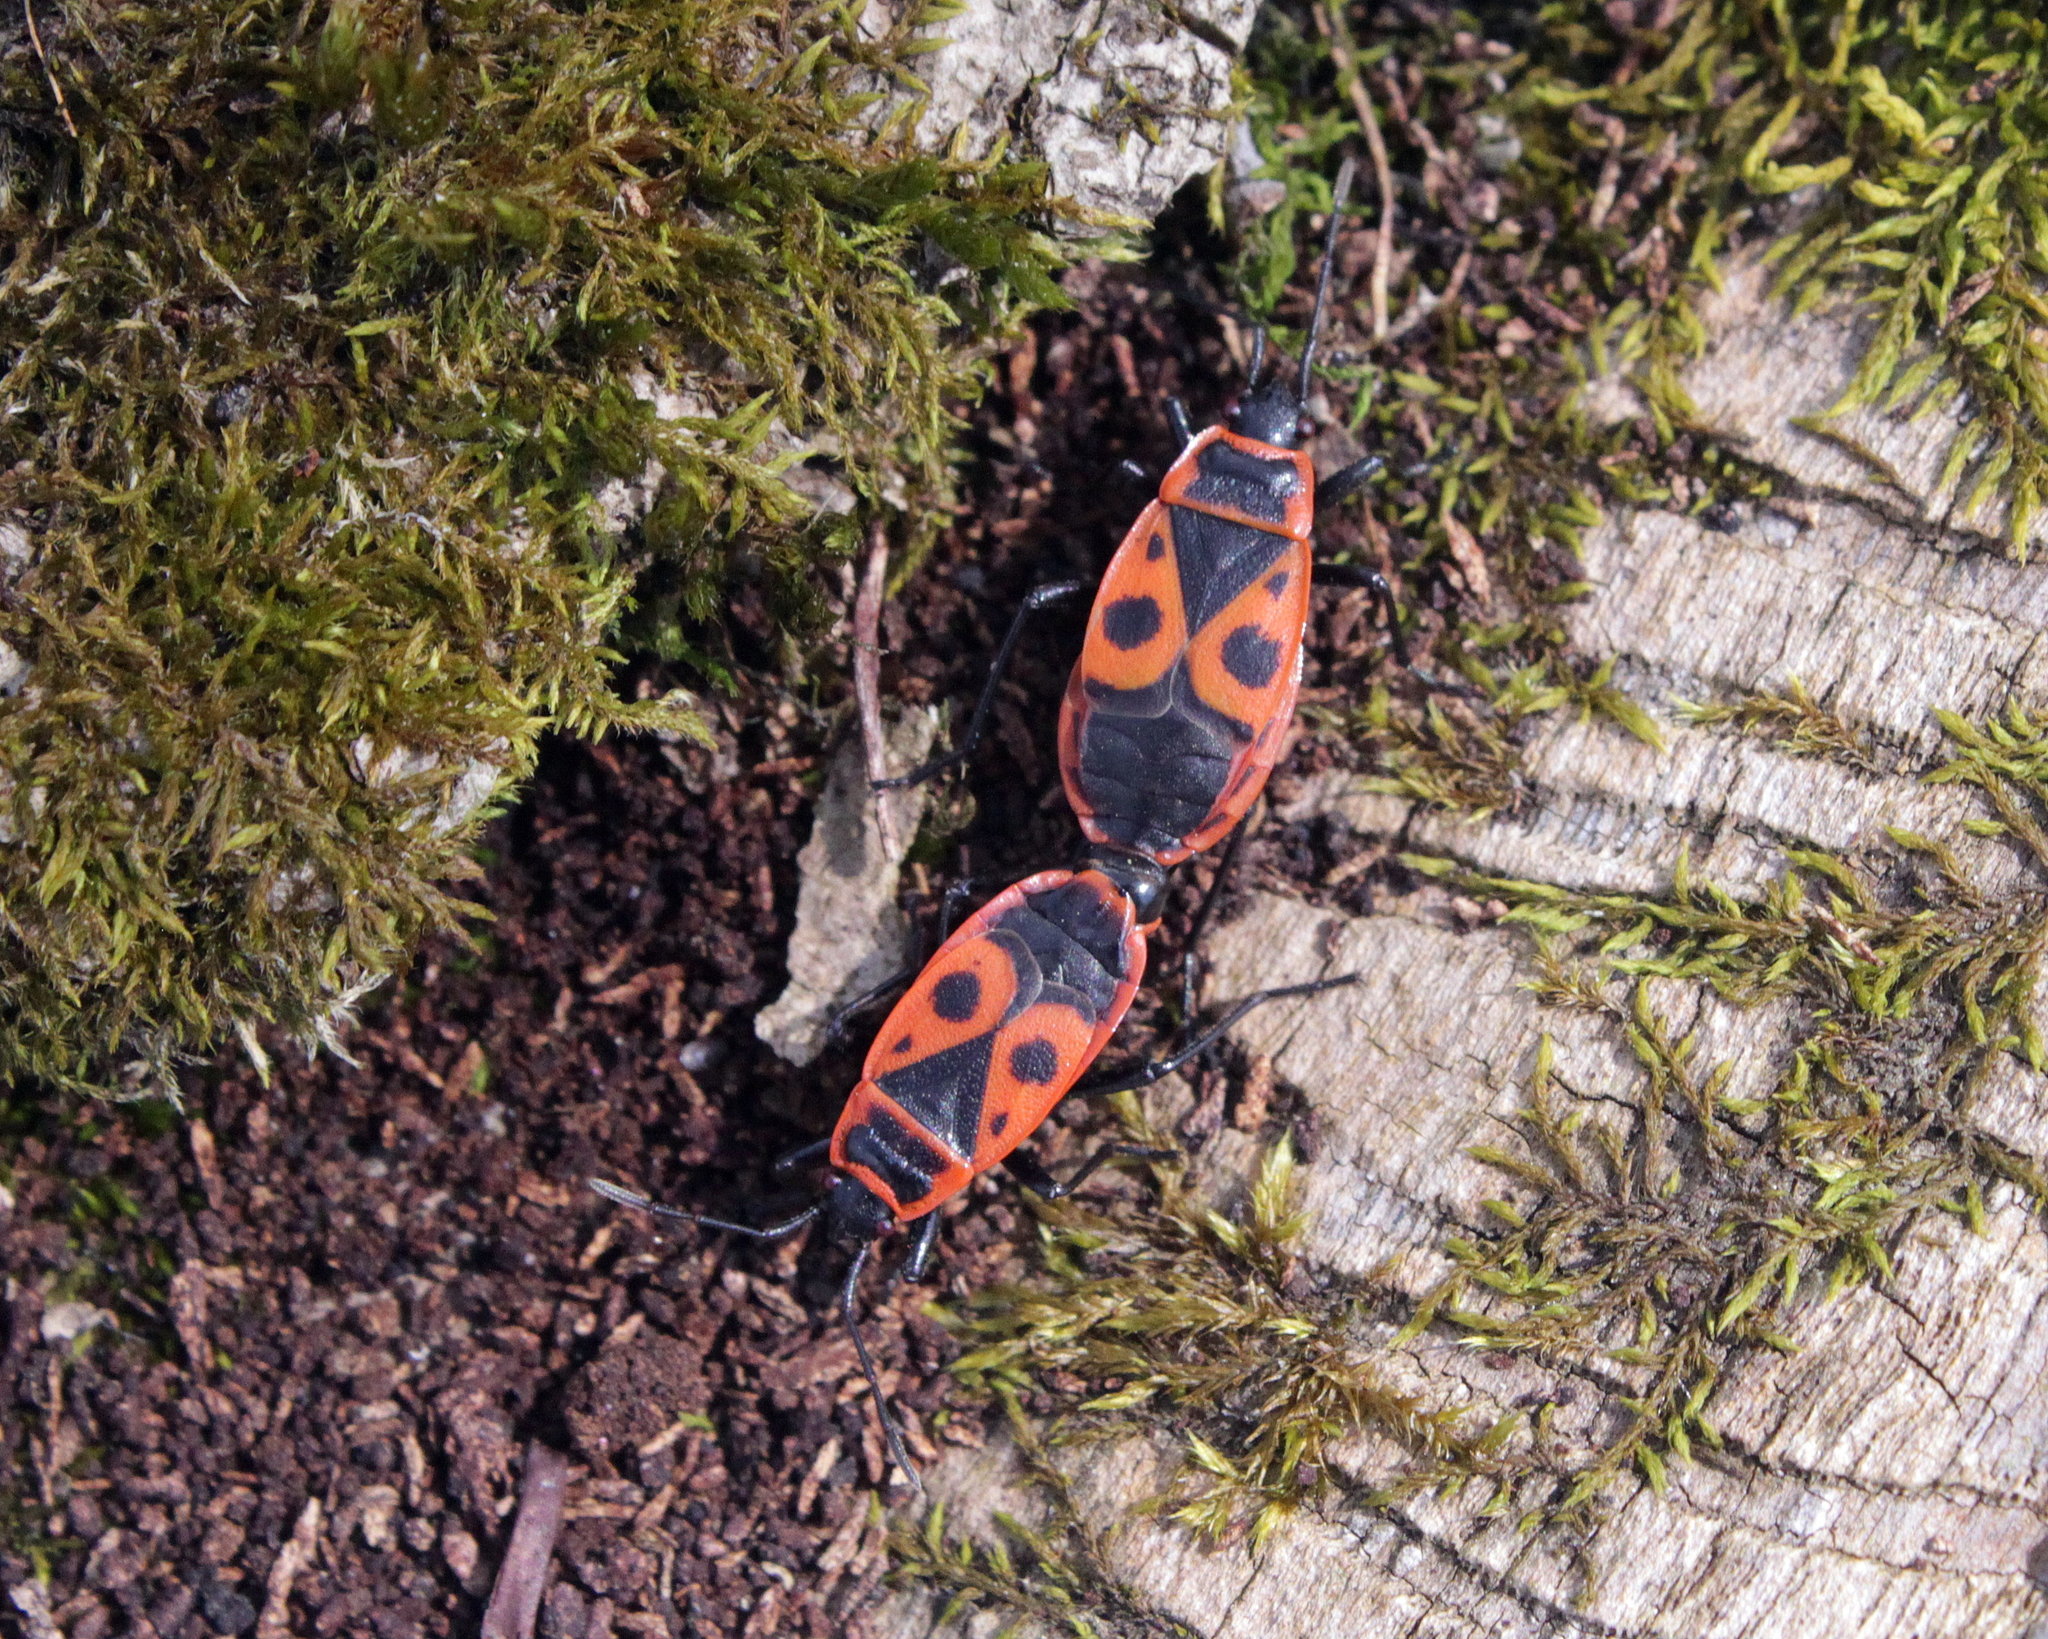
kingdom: Animalia
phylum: Arthropoda
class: Insecta
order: Hemiptera
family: Pyrrhocoridae
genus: Pyrrhocoris
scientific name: Pyrrhocoris apterus
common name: Firebug
